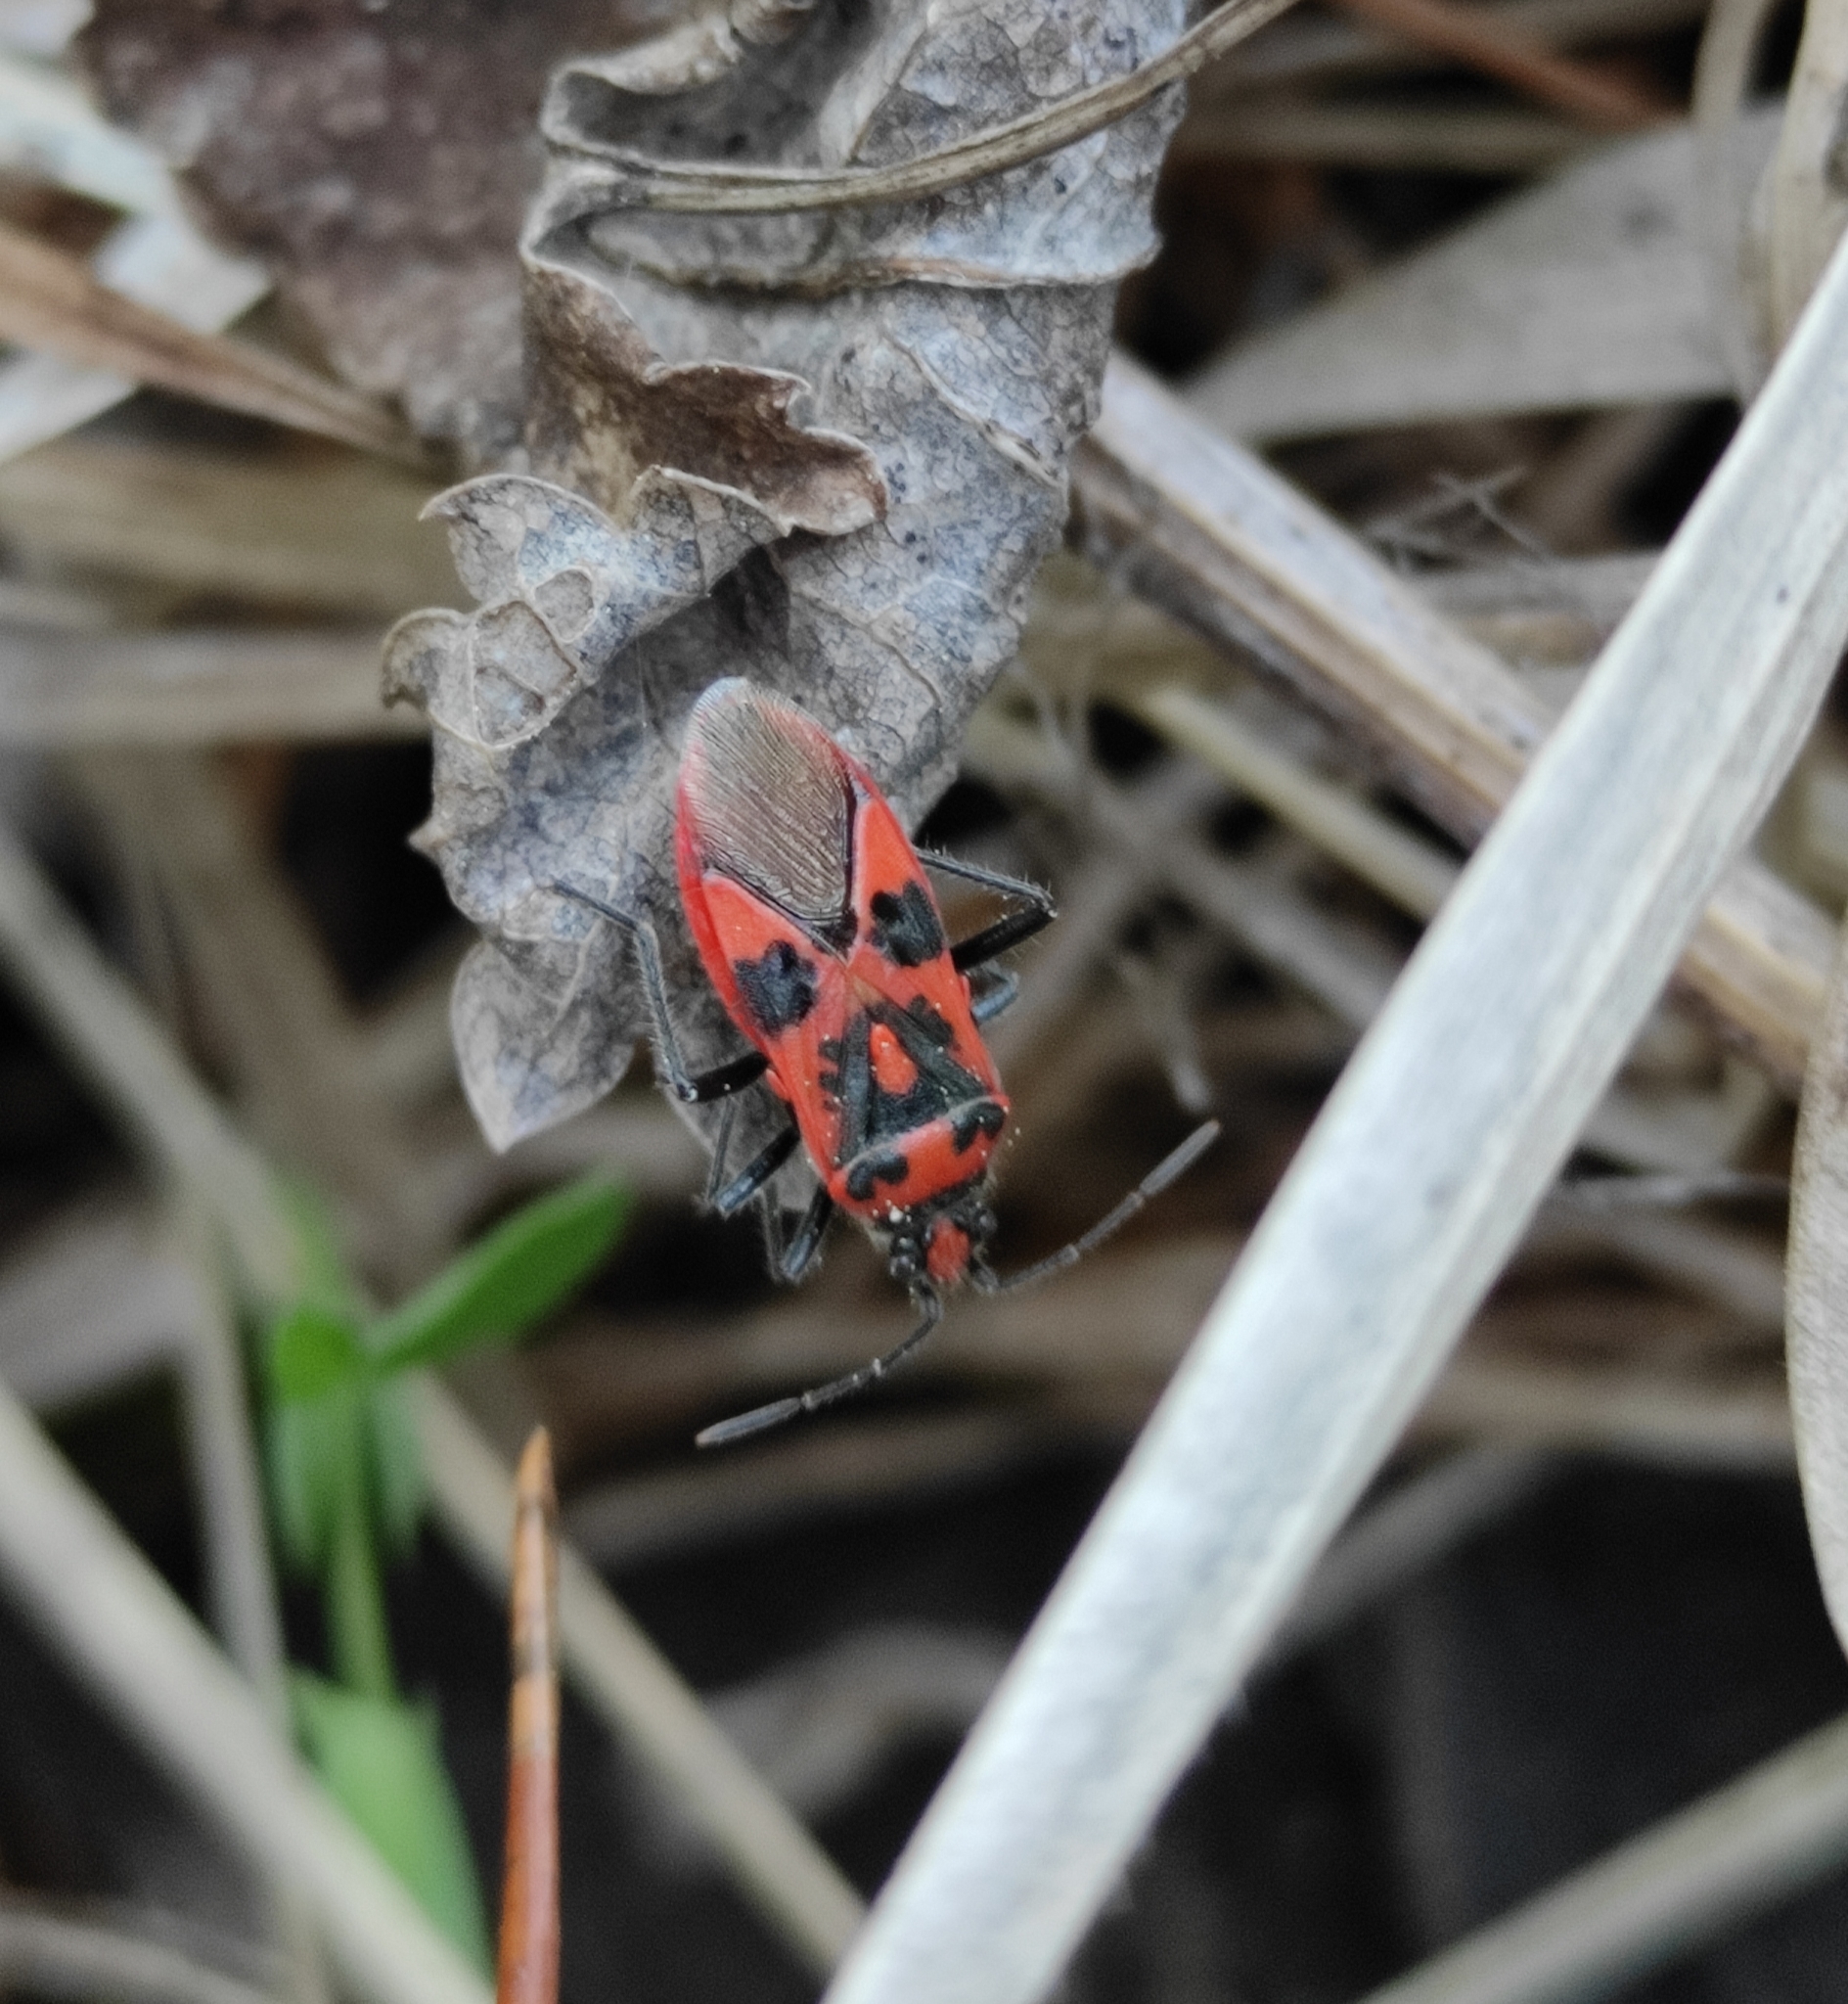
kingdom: Animalia
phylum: Arthropoda
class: Insecta
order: Hemiptera
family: Rhopalidae
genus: Corizus
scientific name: Corizus hyoscyami
